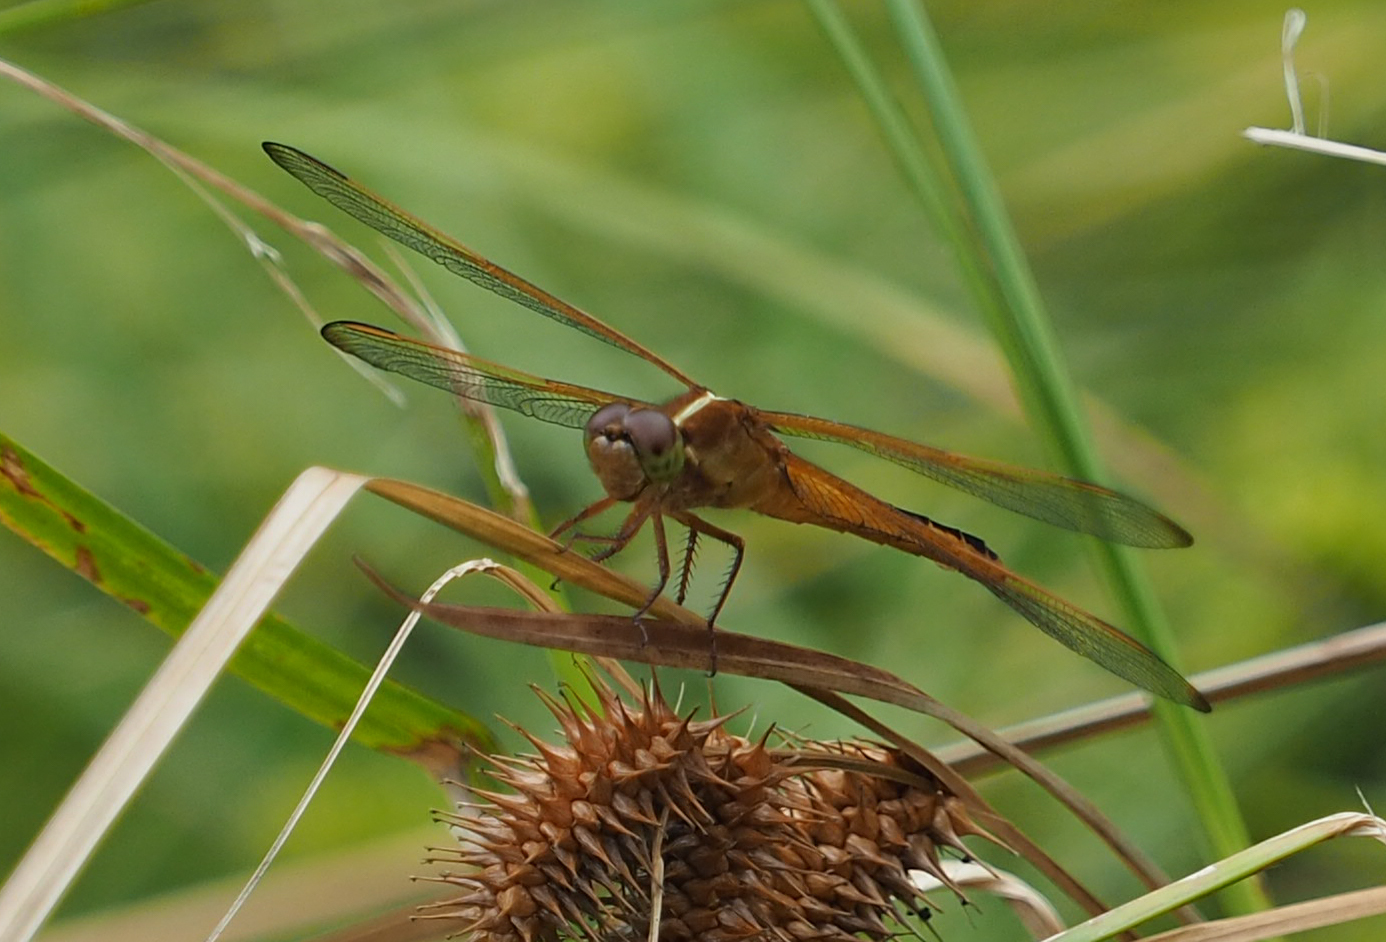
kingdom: Animalia
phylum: Arthropoda
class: Insecta
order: Odonata
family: Libellulidae
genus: Libellula
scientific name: Libellula needhami
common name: Needham's skimmer
